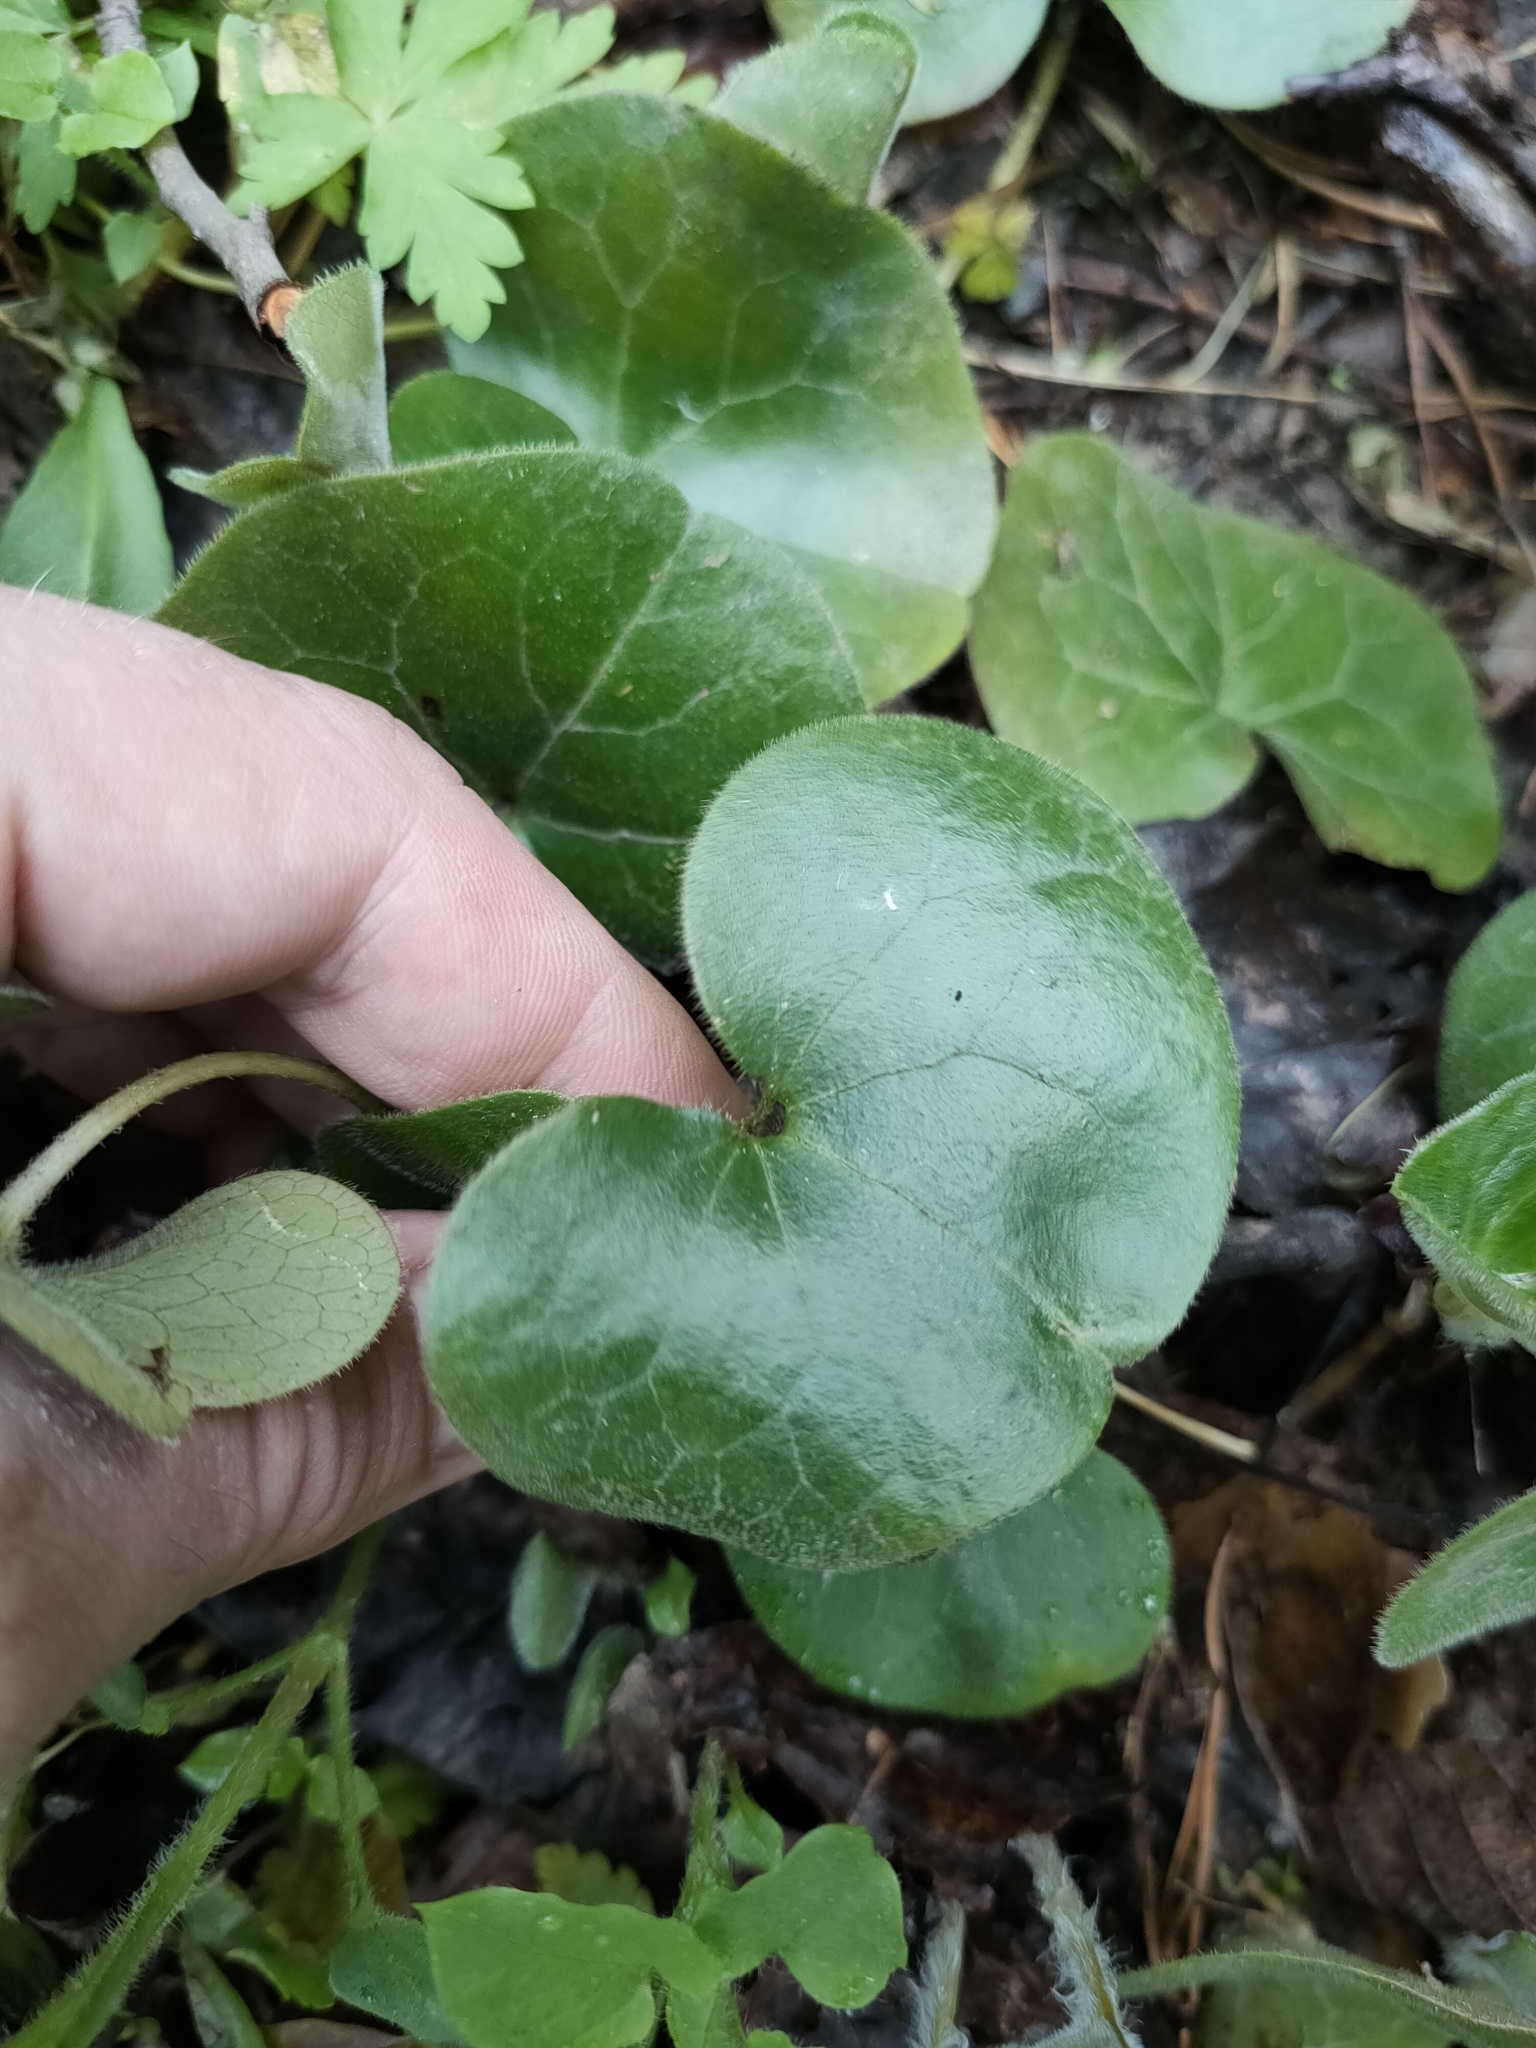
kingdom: Plantae
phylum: Tracheophyta
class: Magnoliopsida
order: Piperales
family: Aristolochiaceae
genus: Asarum
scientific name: Asarum europaeum
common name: Asarabacca
